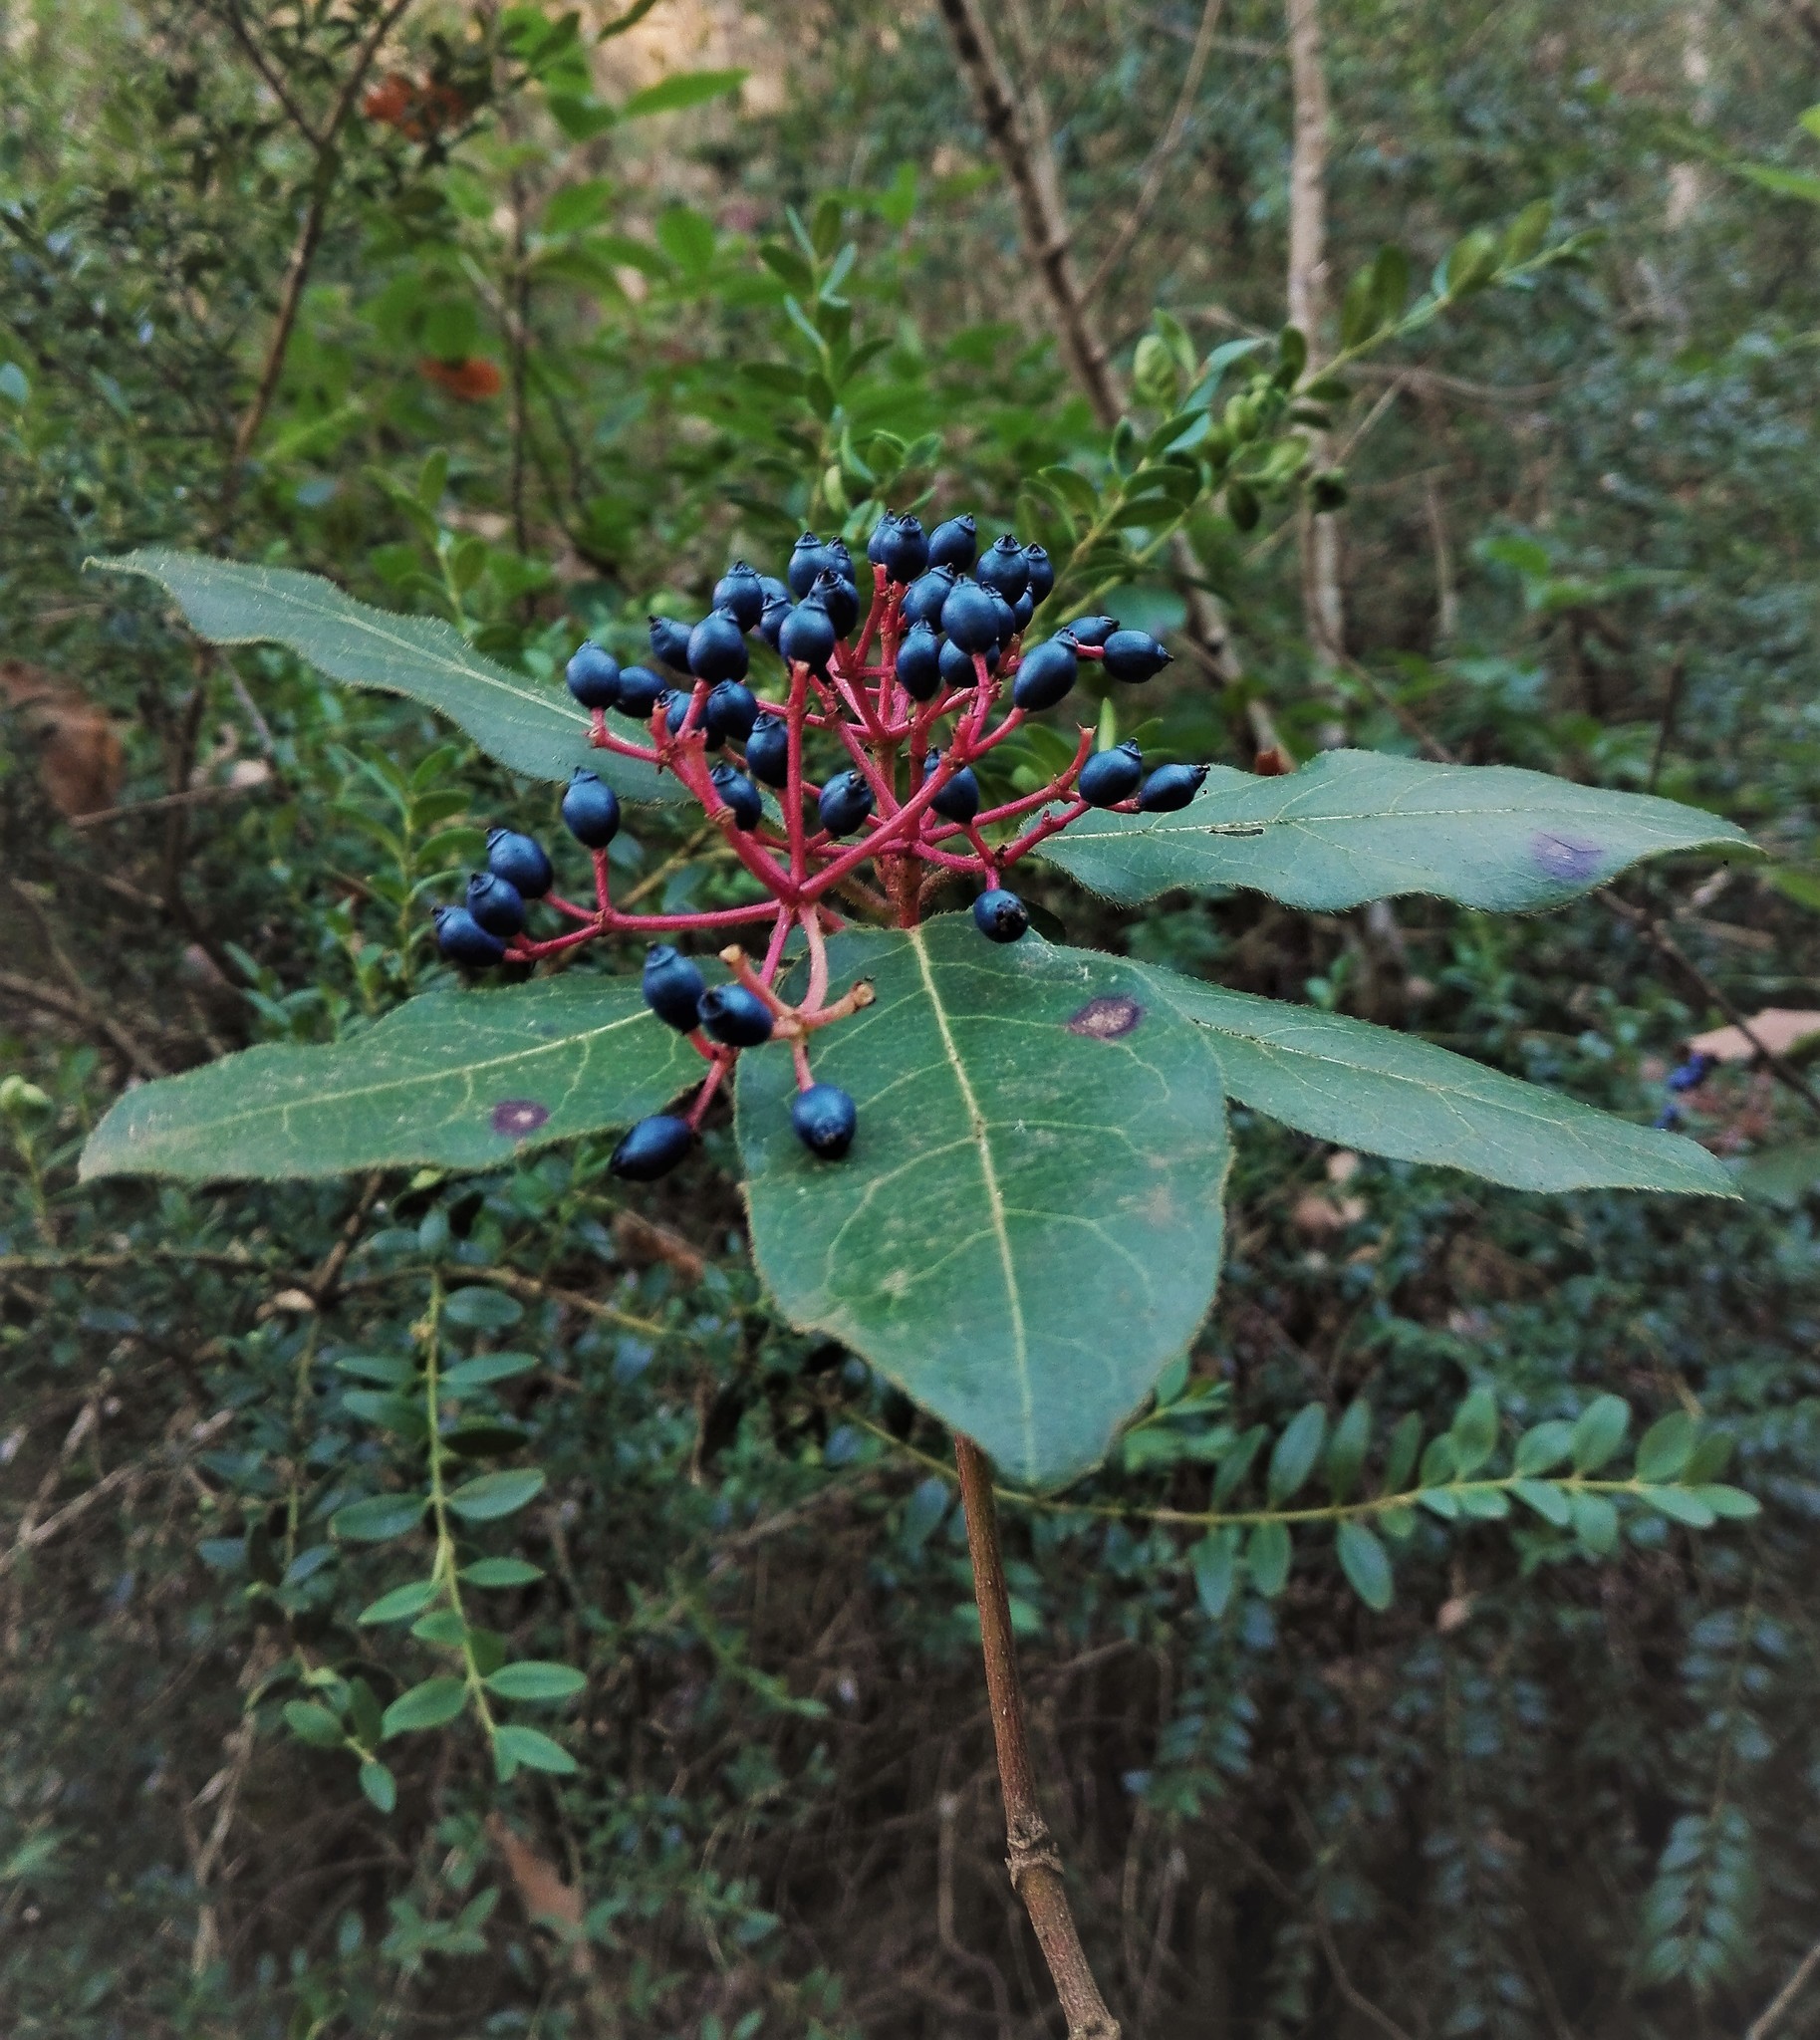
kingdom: Plantae
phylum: Tracheophyta
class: Magnoliopsida
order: Dipsacales
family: Viburnaceae
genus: Viburnum
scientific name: Viburnum tinus
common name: Laurustinus
